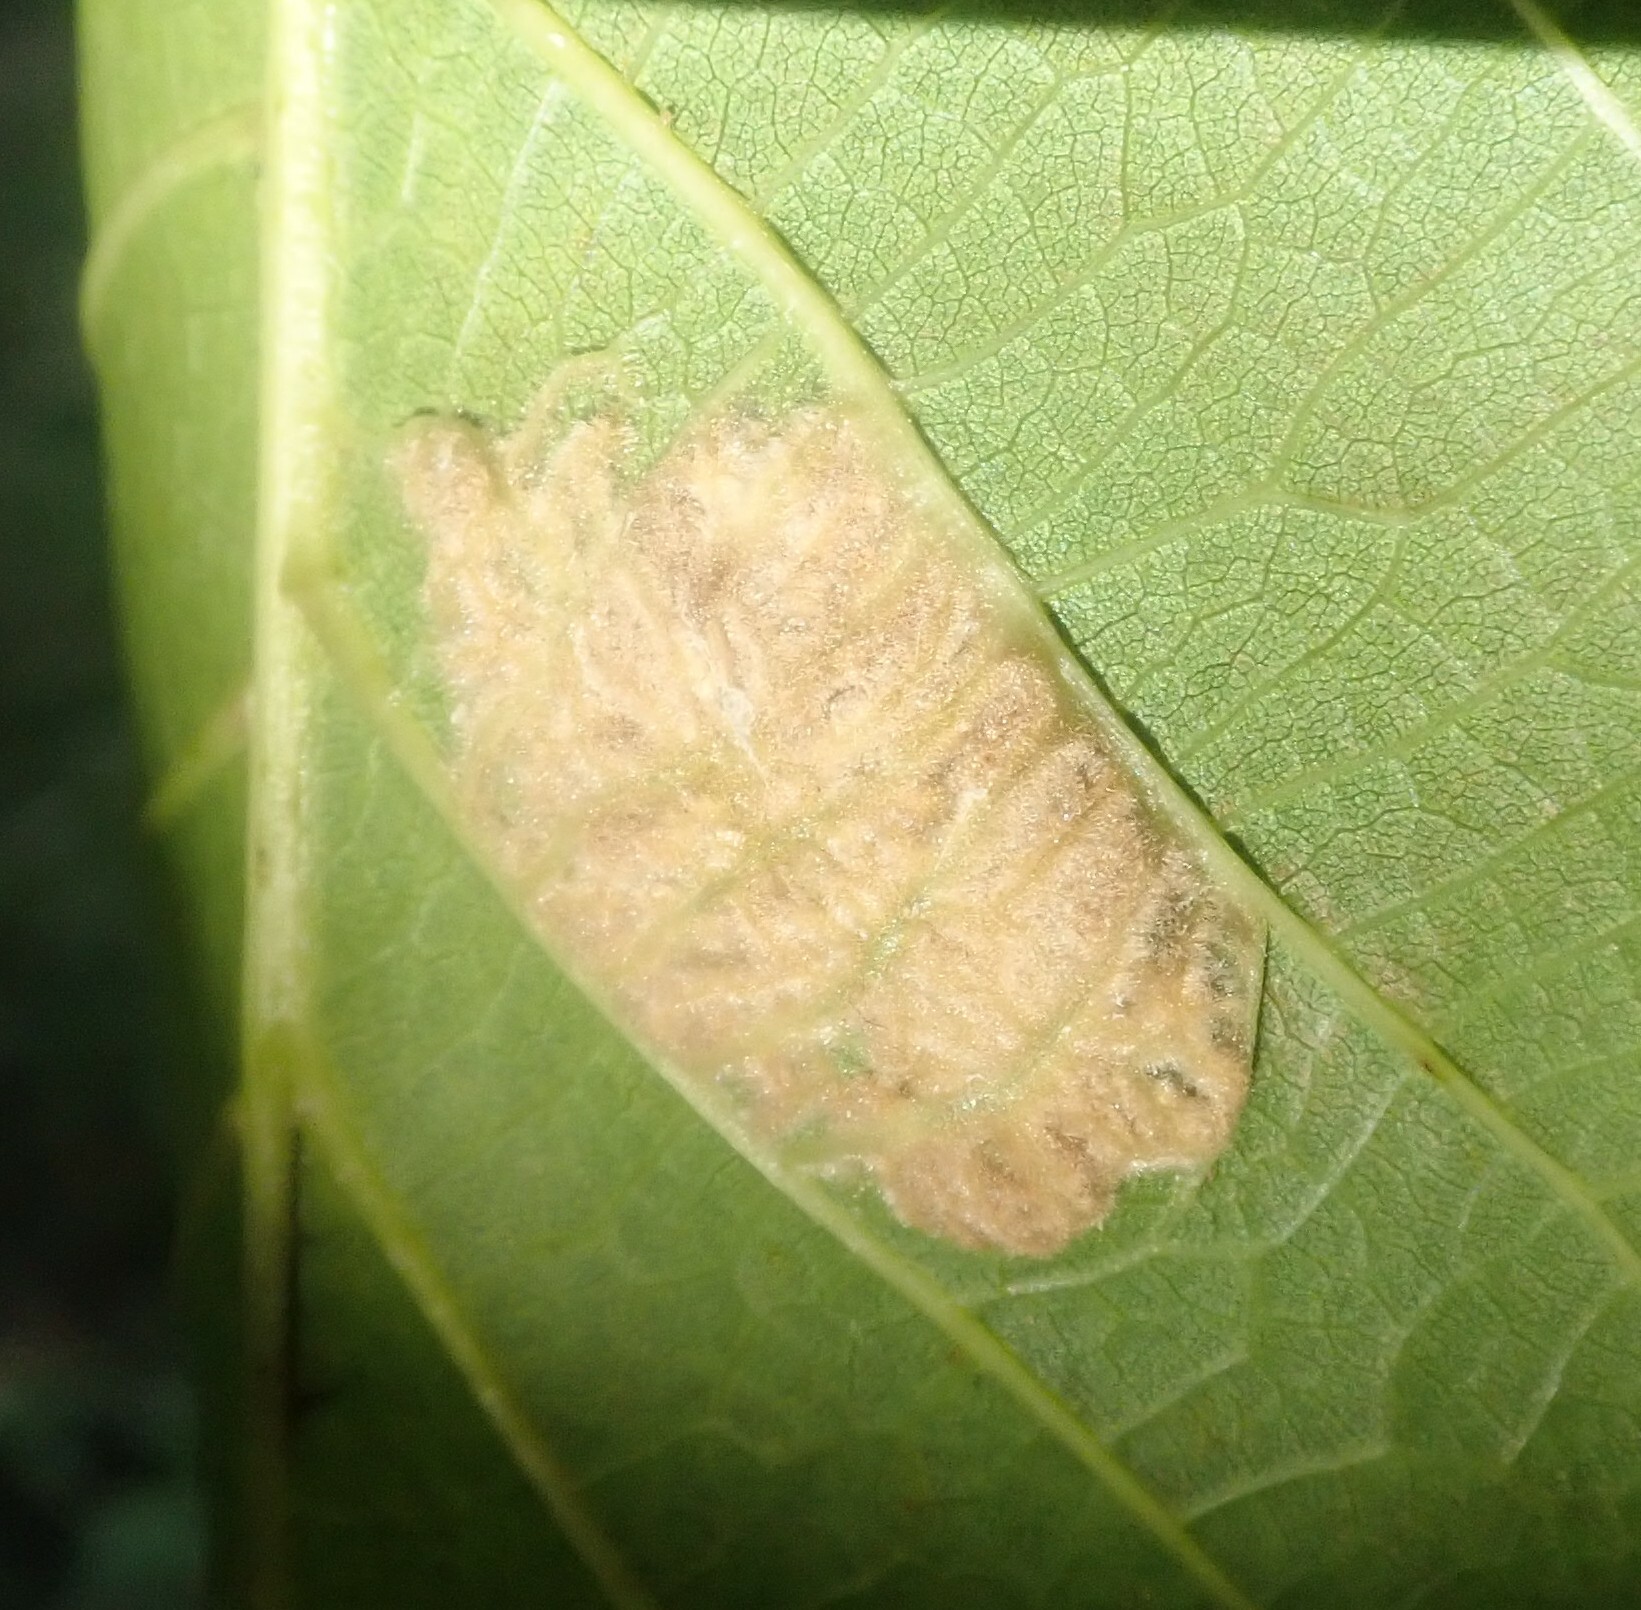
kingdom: Animalia
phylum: Arthropoda
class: Arachnida
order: Trombidiformes
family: Eriophyidae
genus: Aceria
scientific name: Aceria erinea
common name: Persian walnut erineum mite
